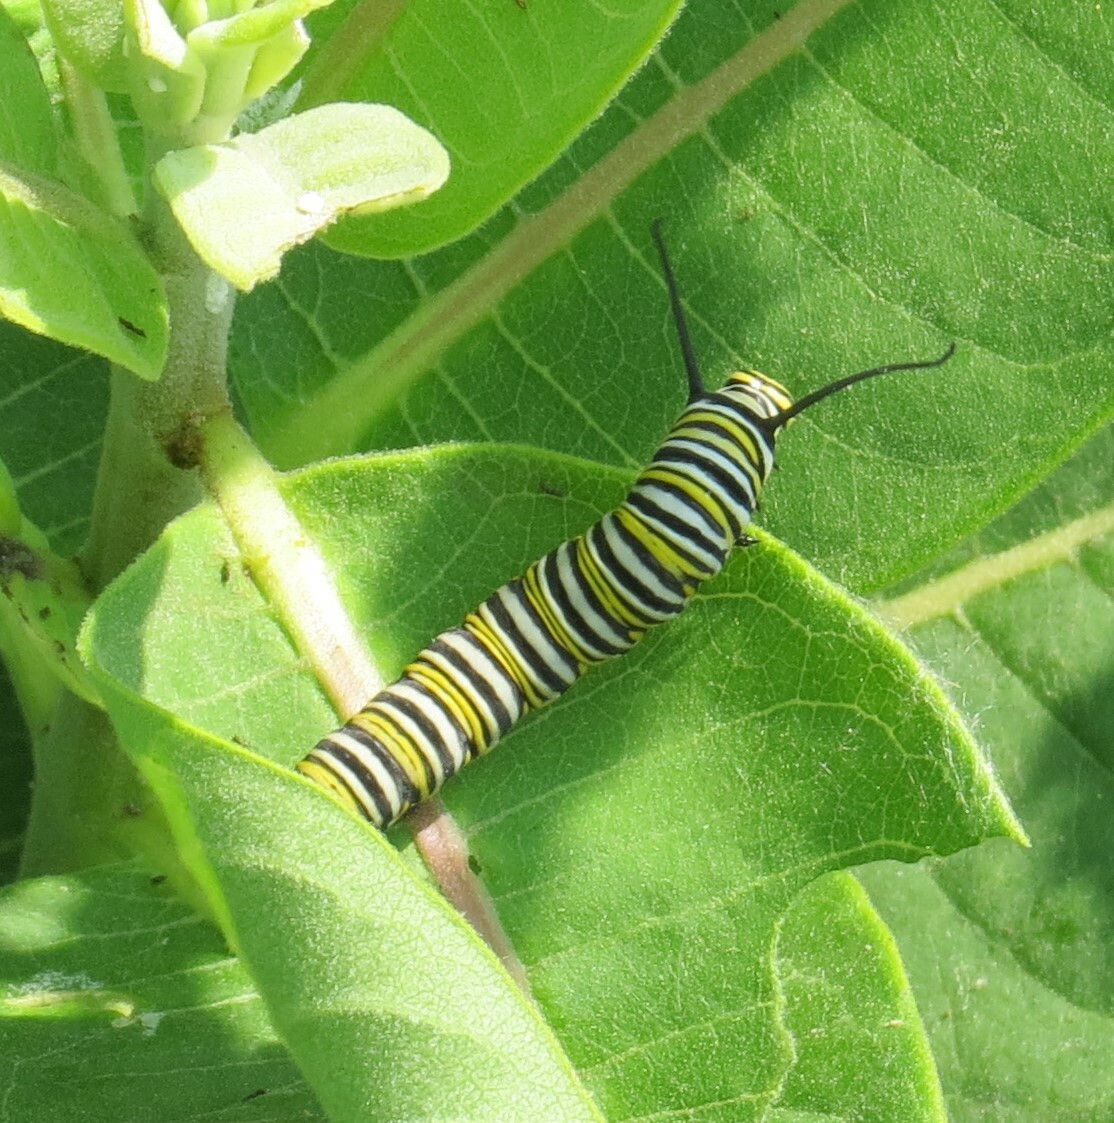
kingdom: Animalia
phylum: Arthropoda
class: Insecta
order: Lepidoptera
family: Nymphalidae
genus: Danaus
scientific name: Danaus plexippus
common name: Monarch
